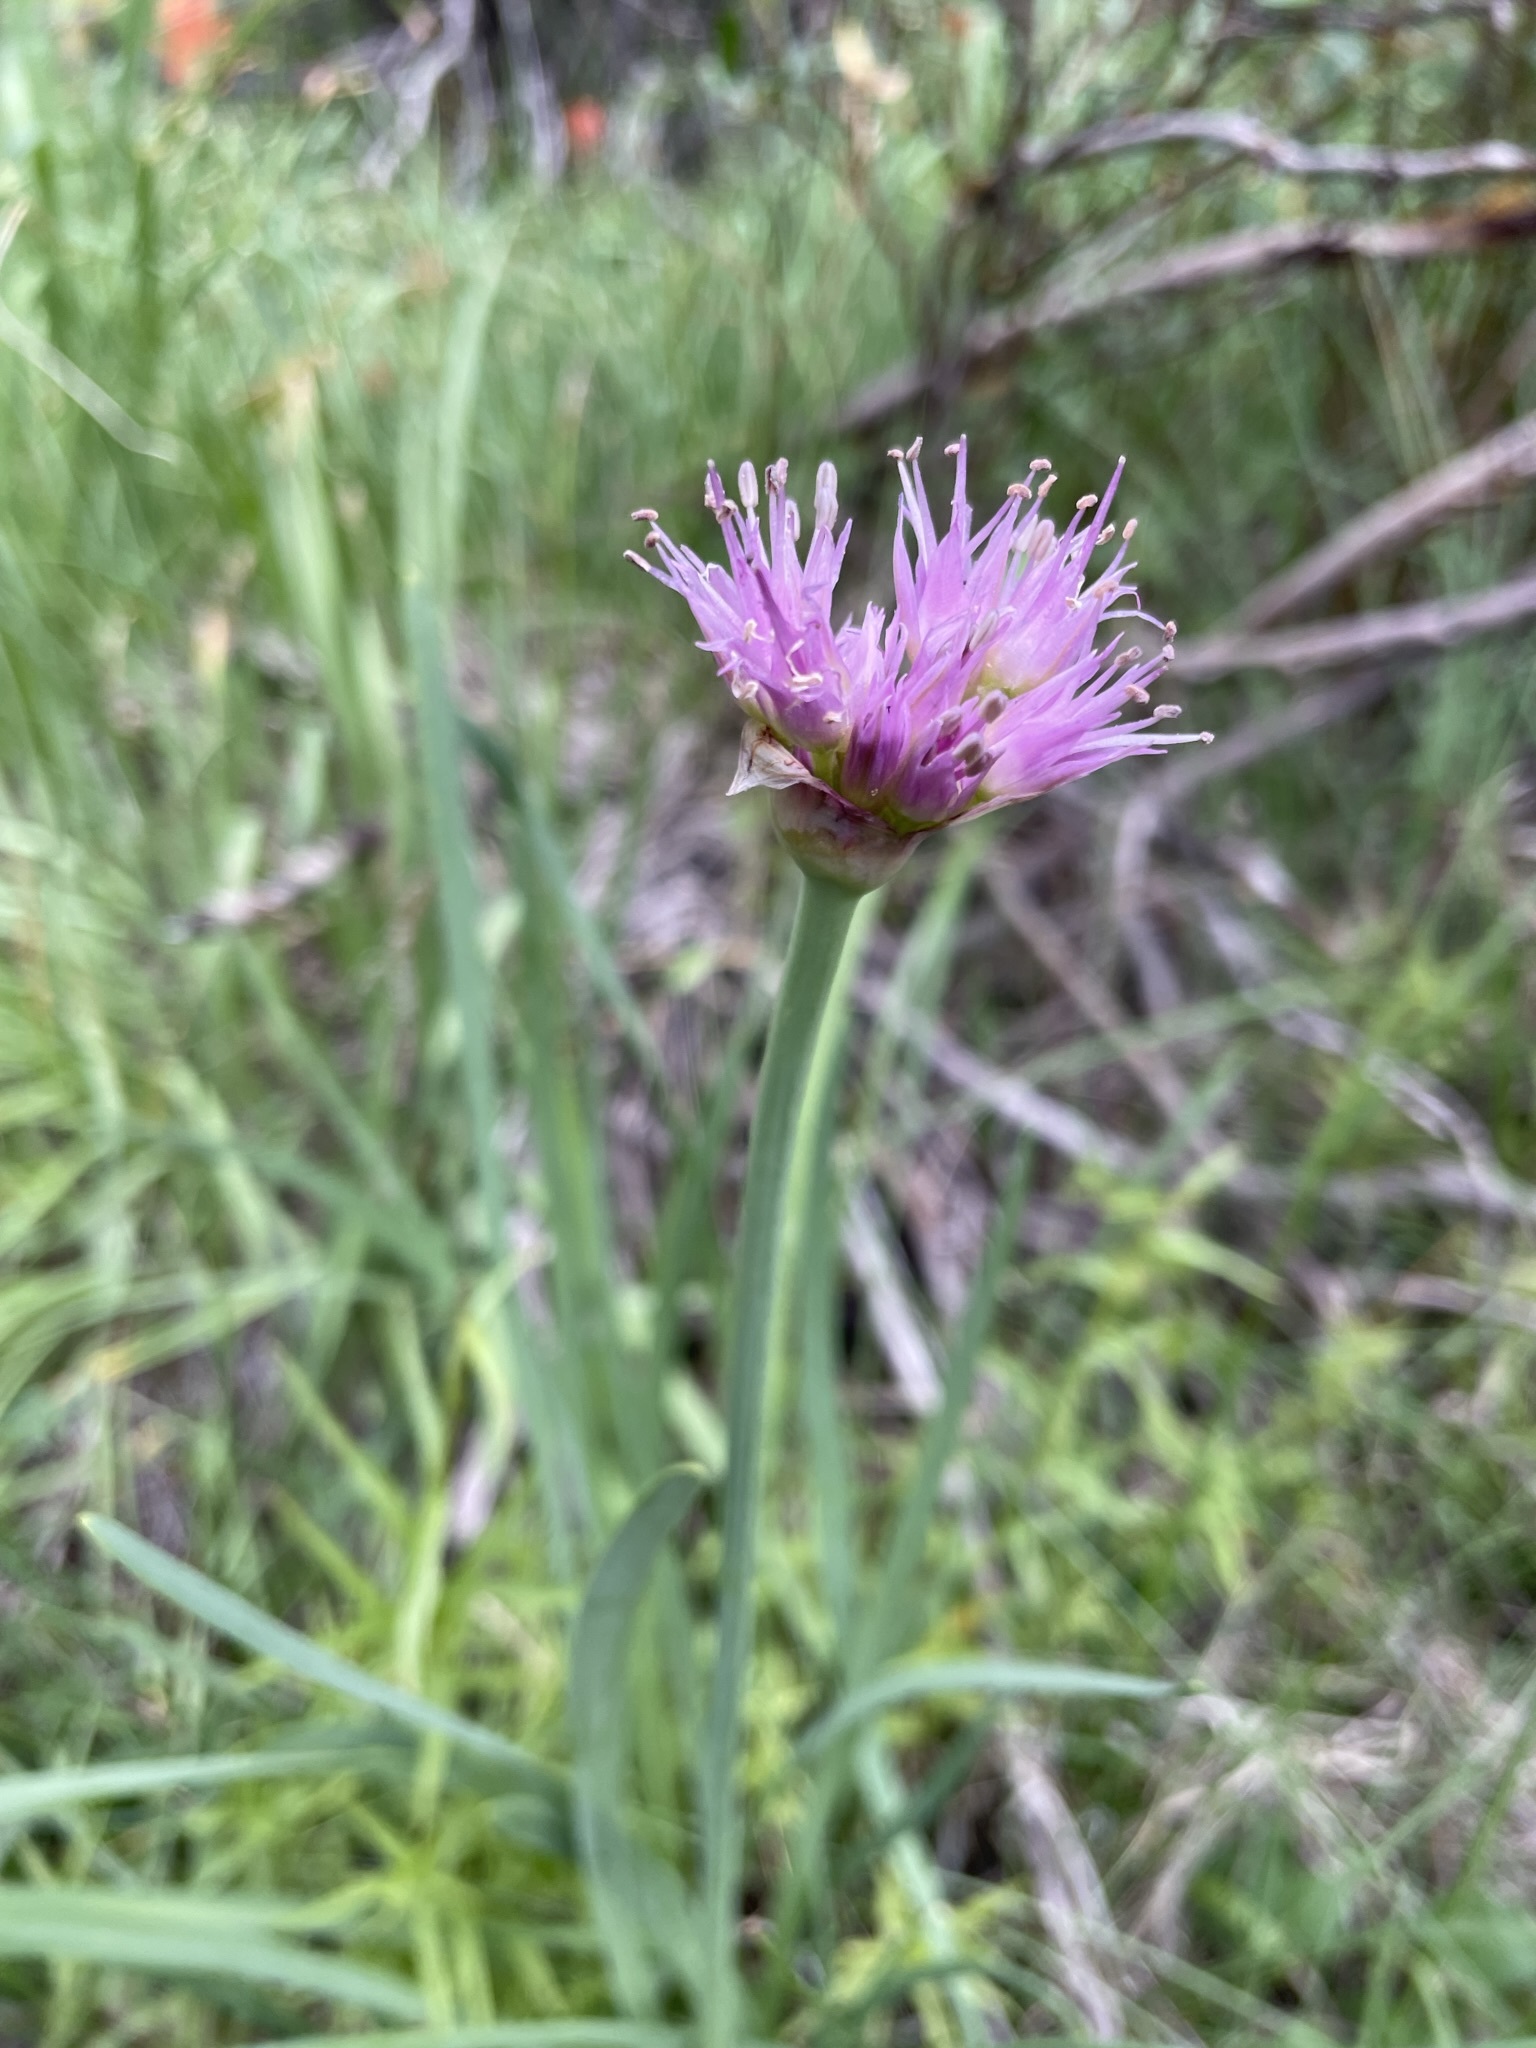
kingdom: Plantae
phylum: Tracheophyta
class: Liliopsida
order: Asparagales
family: Amaryllidaceae
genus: Allium
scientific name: Allium validum
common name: Pacific mountain onion
